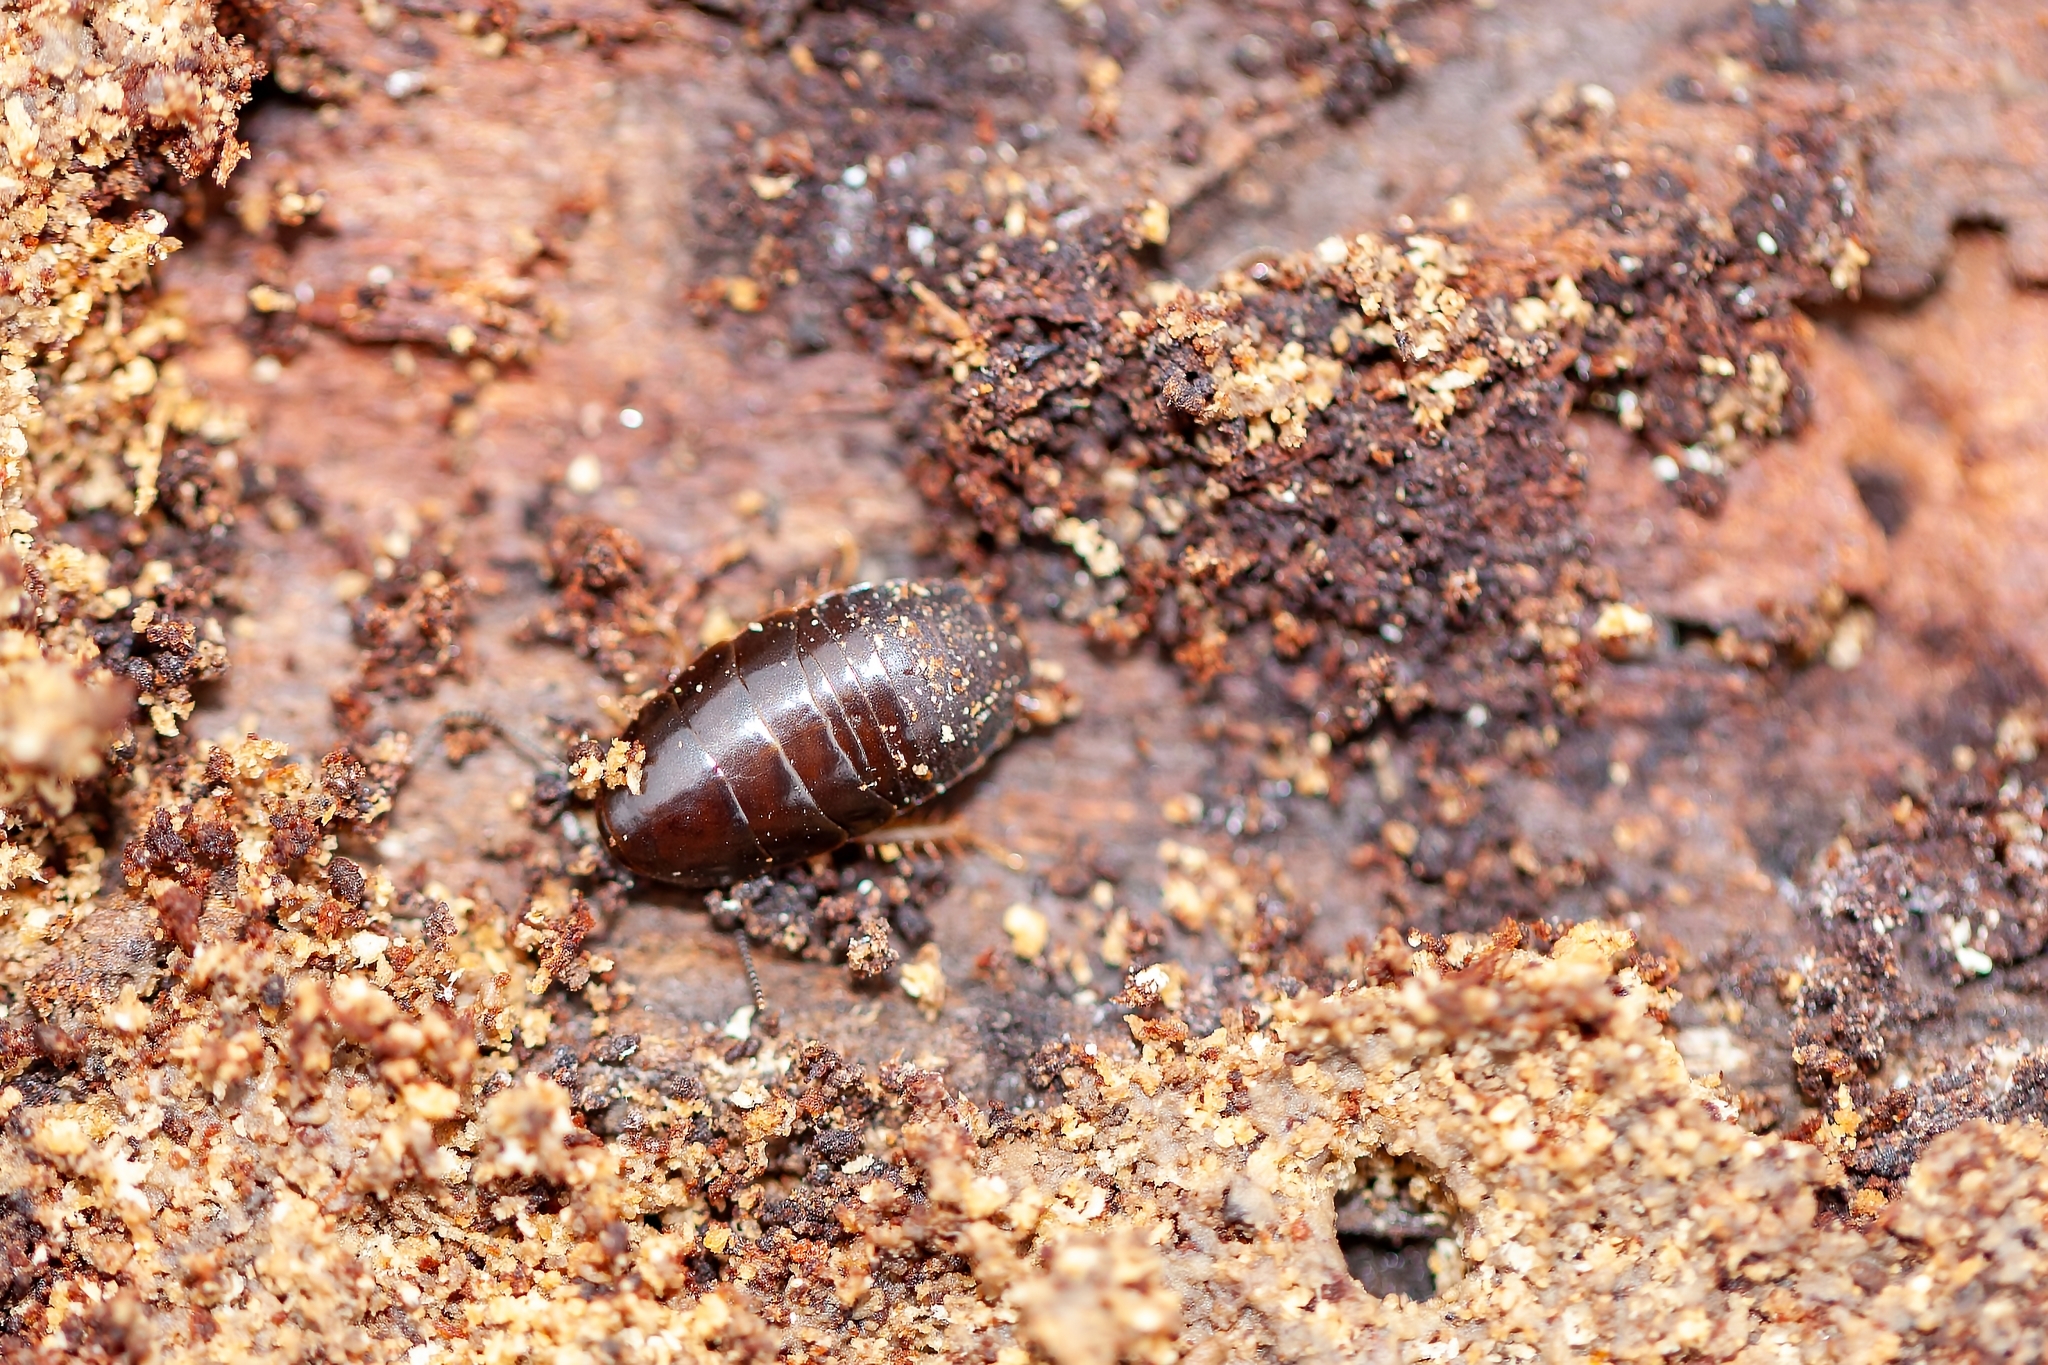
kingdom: Animalia
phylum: Arthropoda
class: Insecta
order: Blattodea
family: Blaberidae
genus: Pycnoscelus
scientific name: Pycnoscelus surinamensis
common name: Surinam cockroach
